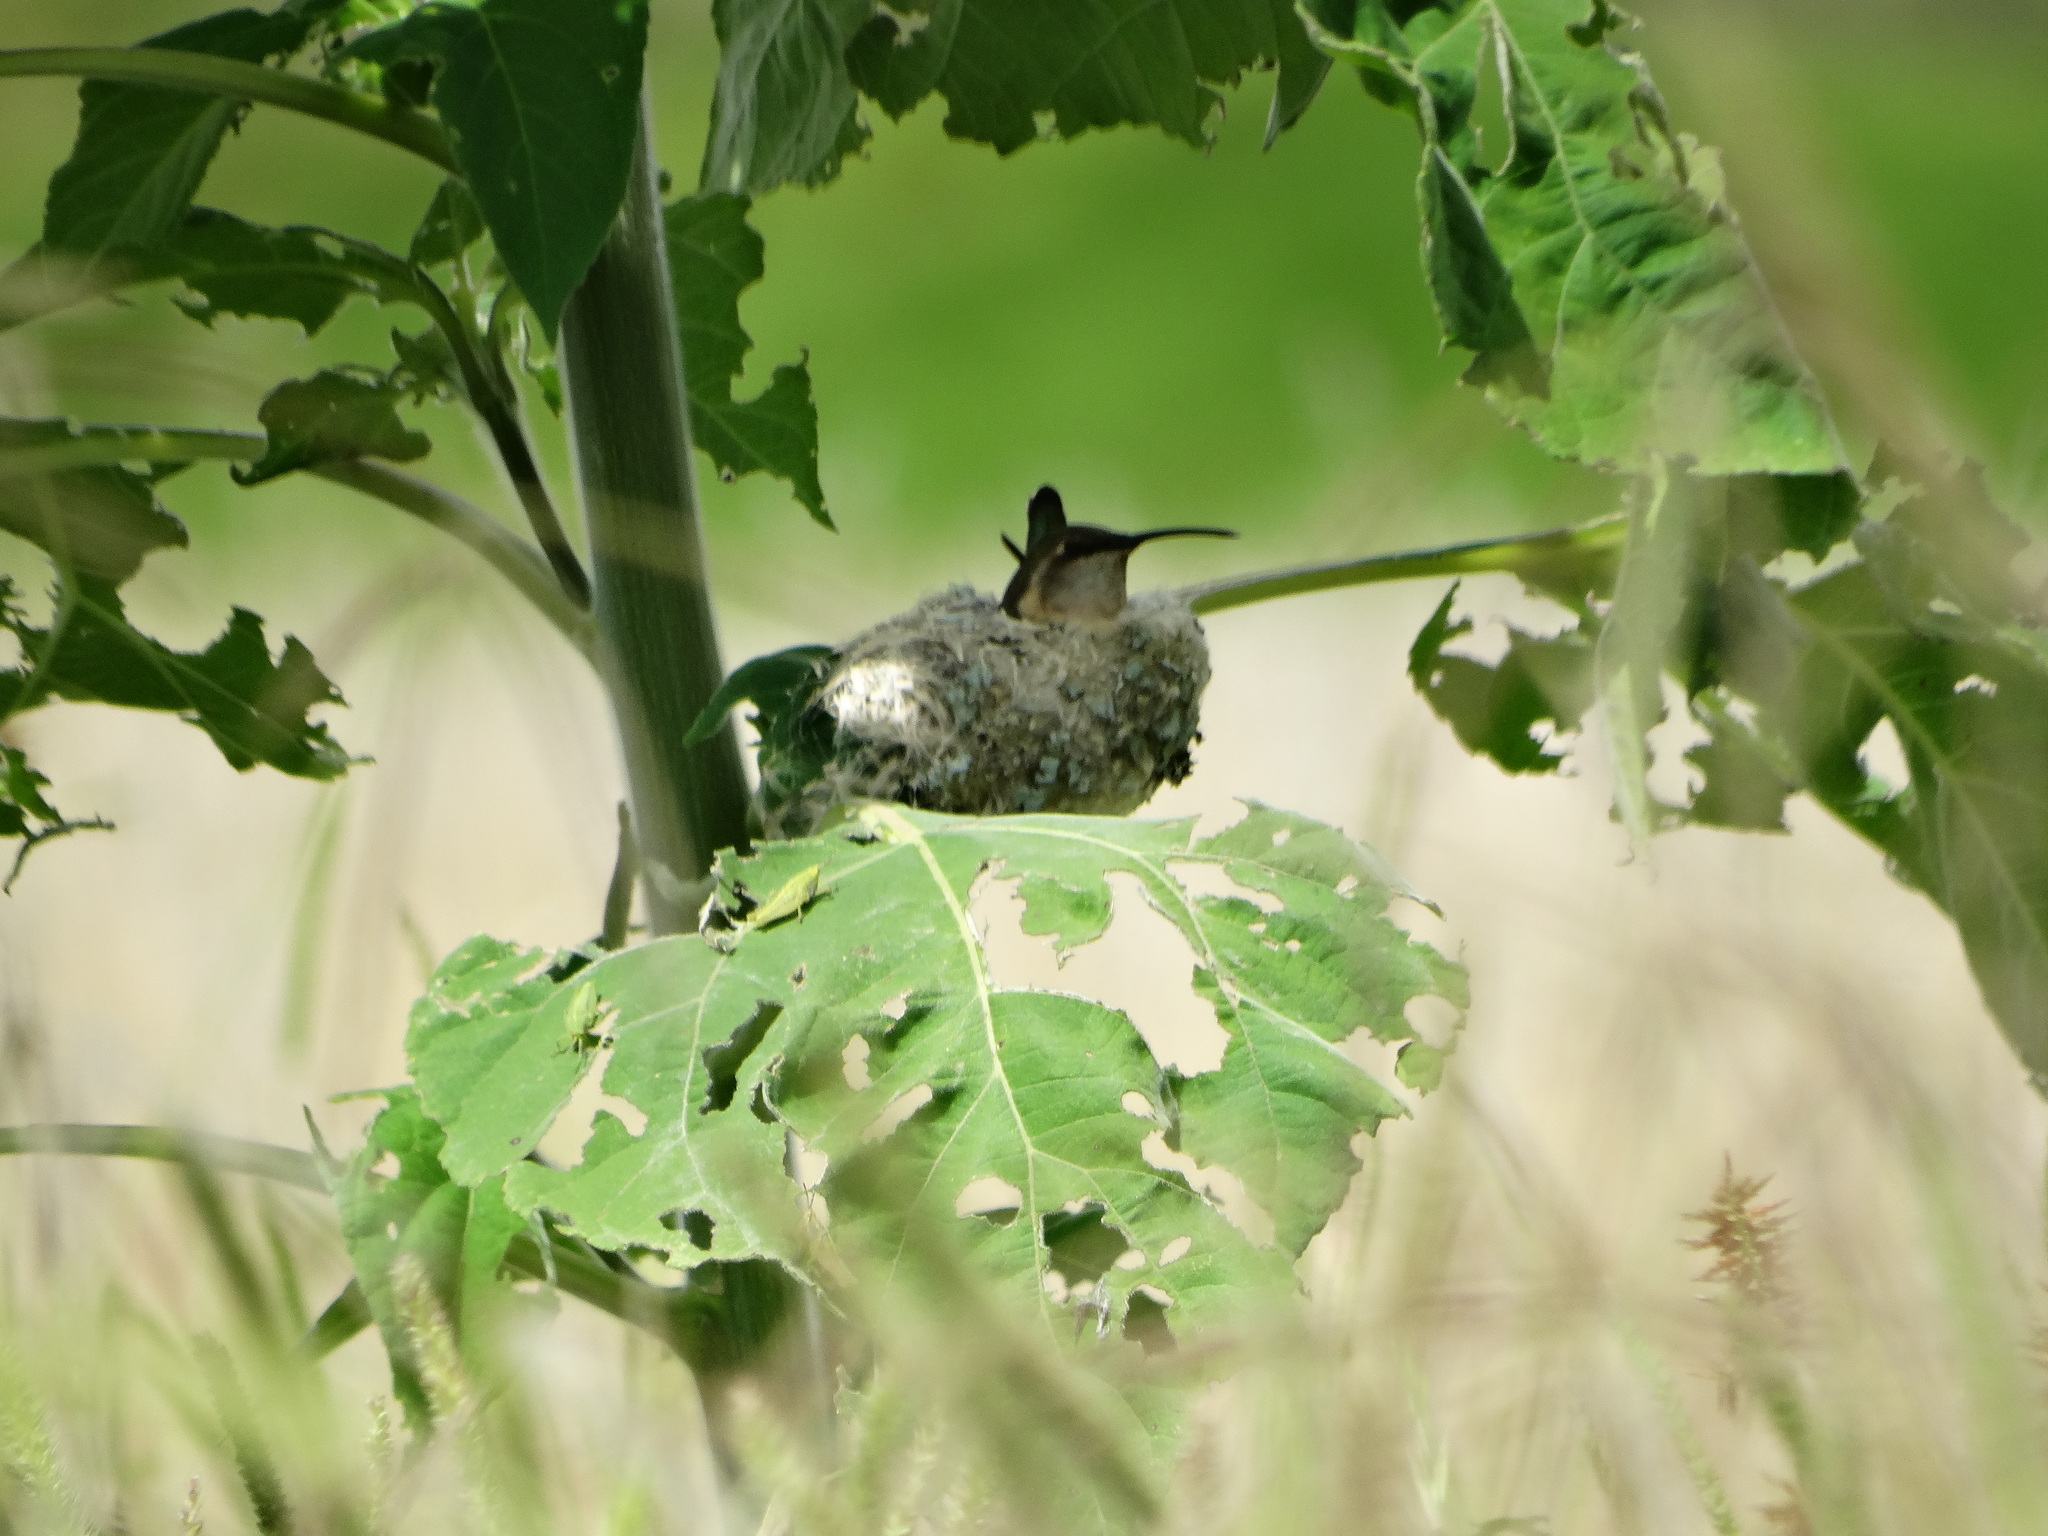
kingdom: Animalia
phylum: Chordata
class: Aves
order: Apodiformes
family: Trochilidae
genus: Calothorax
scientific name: Calothorax lucifer
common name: Lucifer sheartail
